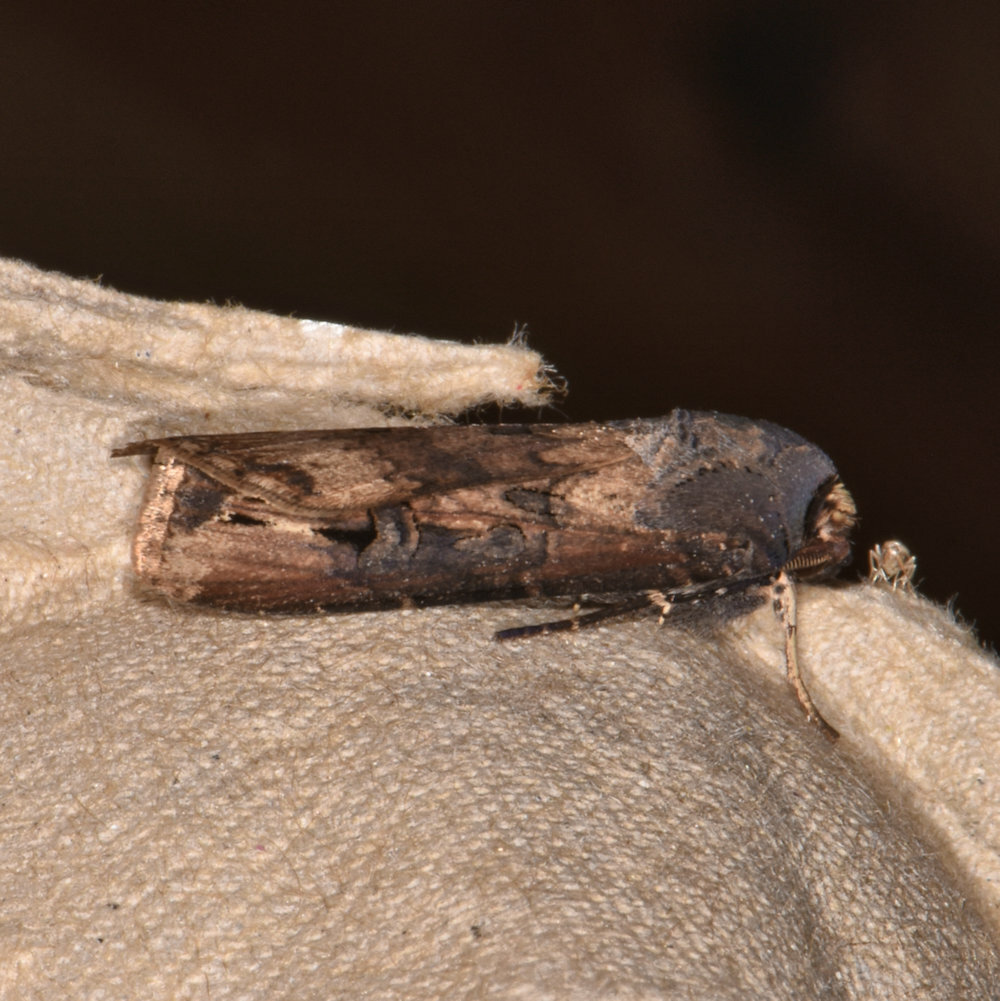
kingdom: Animalia
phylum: Arthropoda
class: Insecta
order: Lepidoptera
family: Noctuidae
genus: Agrotis
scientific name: Agrotis ipsilon
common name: Dark sword-grass
